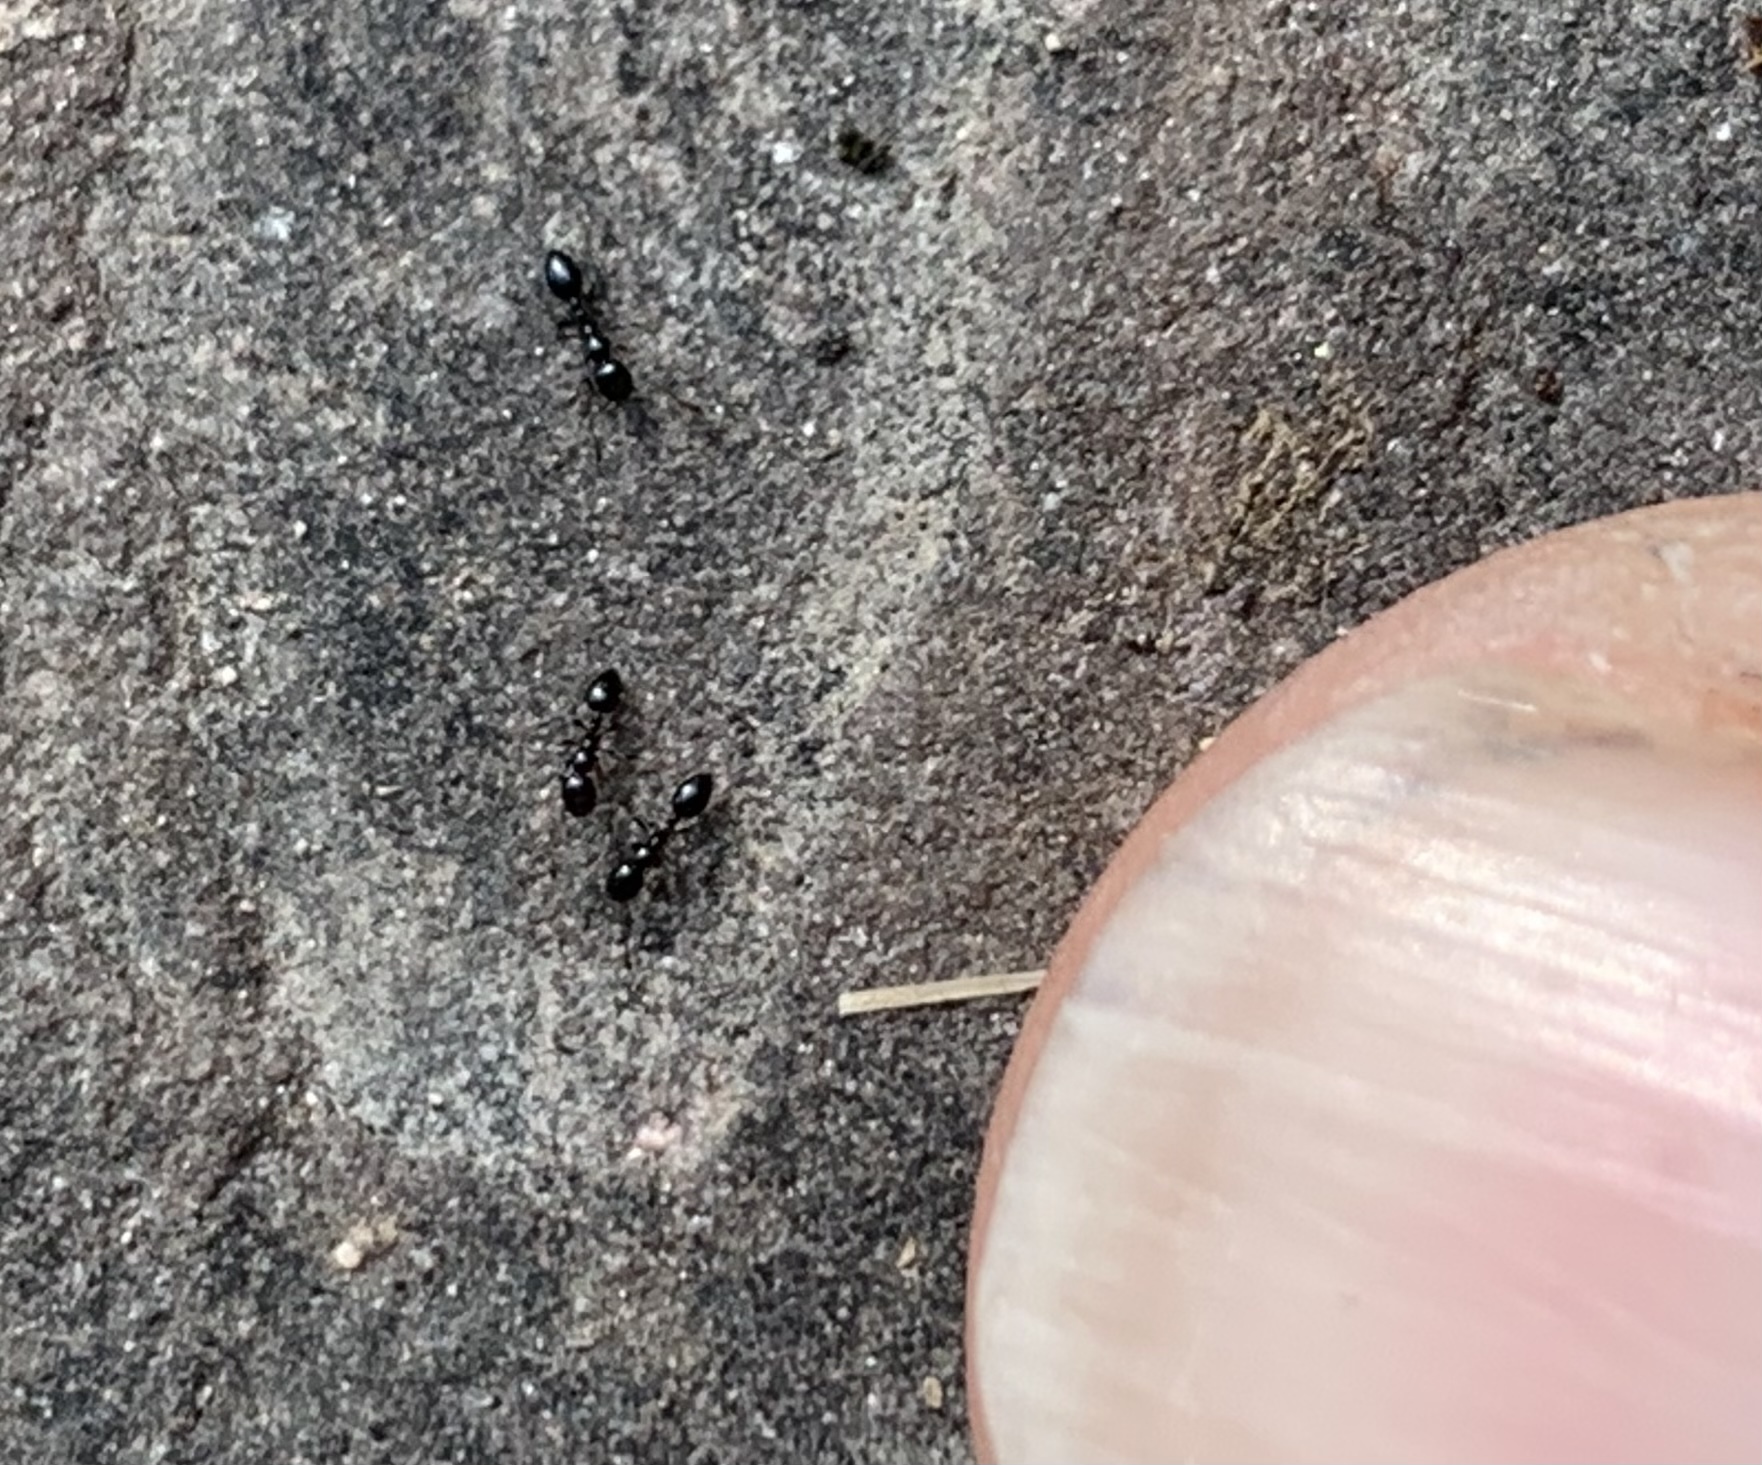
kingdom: Animalia
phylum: Arthropoda
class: Insecta
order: Hymenoptera
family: Formicidae
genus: Monomorium
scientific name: Monomorium
